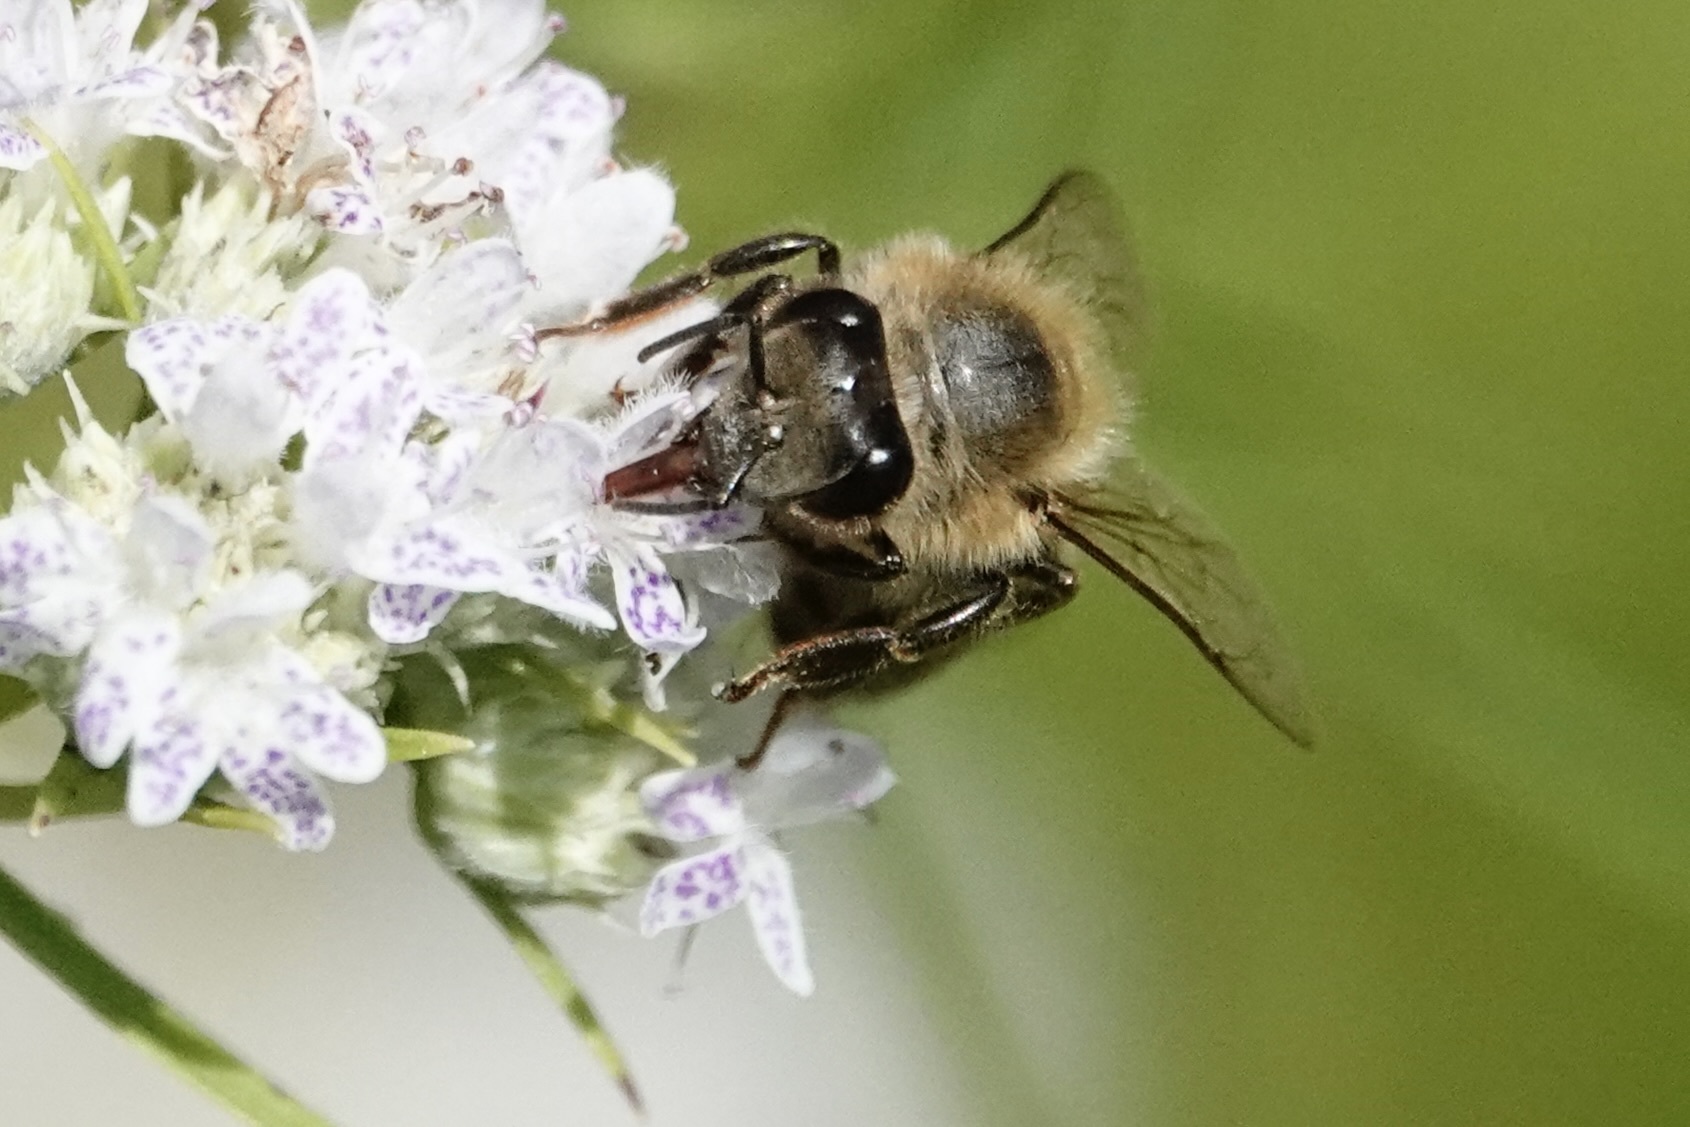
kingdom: Animalia
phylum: Arthropoda
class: Insecta
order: Hymenoptera
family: Apidae
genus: Apis
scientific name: Apis mellifera
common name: Honey bee
